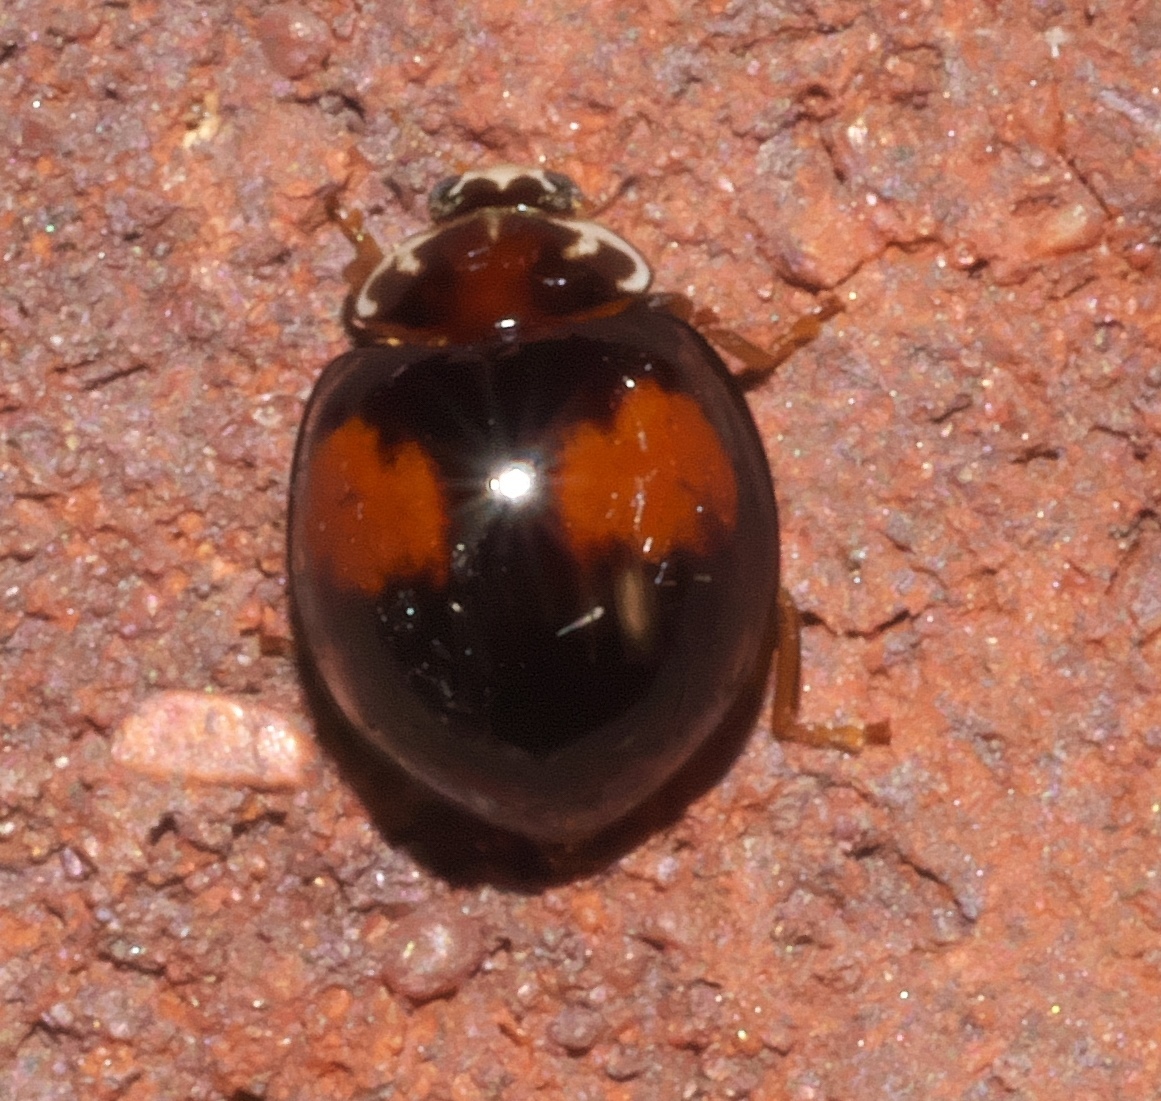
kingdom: Animalia
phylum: Arthropoda
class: Insecta
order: Coleoptera
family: Coccinellidae
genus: Olla
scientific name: Olla v-nigrum
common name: Ashy gray lady beetle
